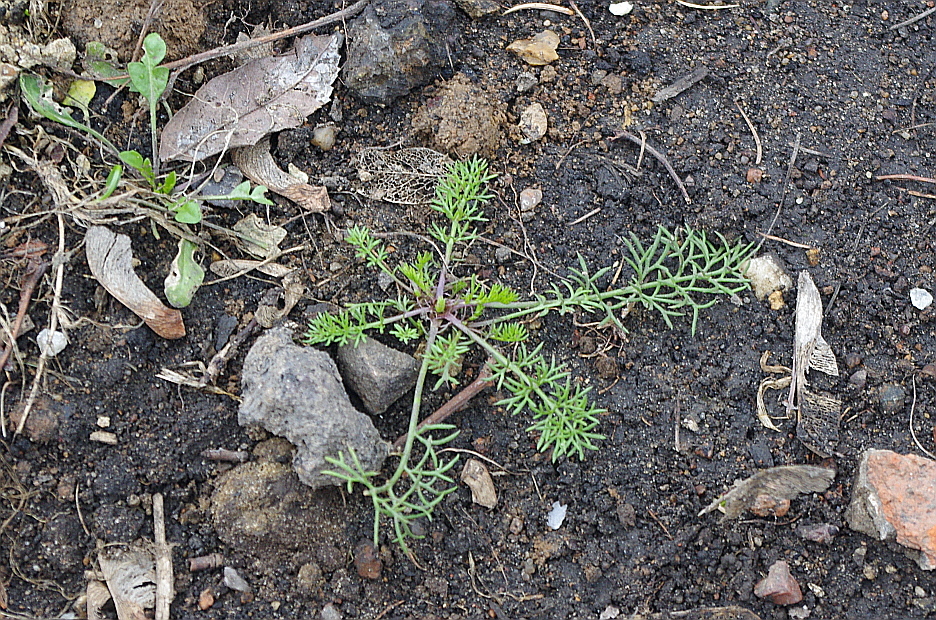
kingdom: Plantae
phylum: Tracheophyta
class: Magnoliopsida
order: Asterales
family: Asteraceae
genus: Tripleurospermum
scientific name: Tripleurospermum inodorum
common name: Scentless mayweed
